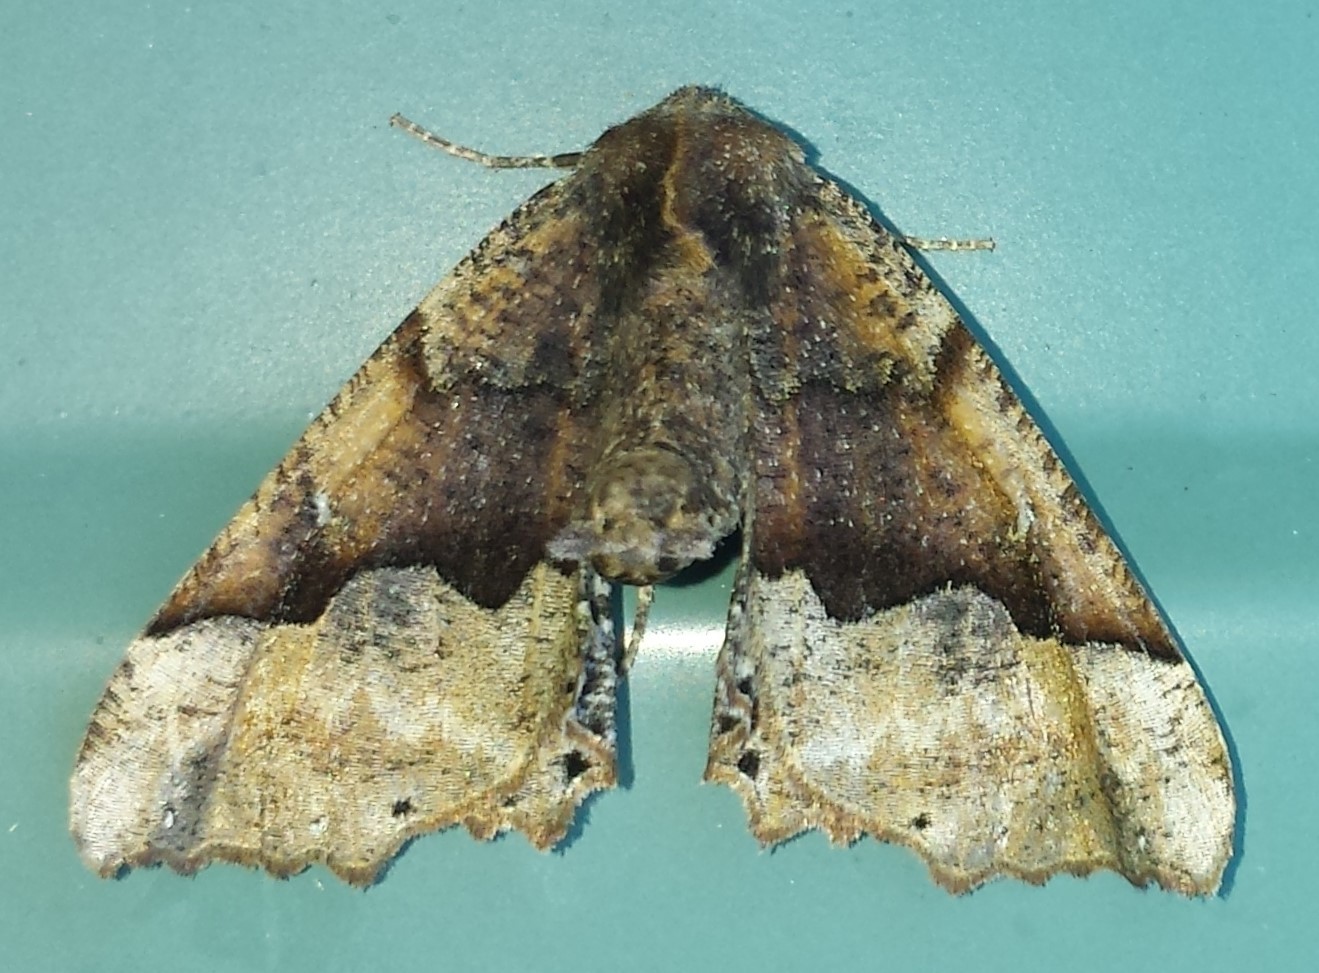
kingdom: Animalia
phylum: Arthropoda
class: Insecta
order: Lepidoptera
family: Geometridae
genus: Pero
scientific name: Pero morrisonaria
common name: Morrison's pero
